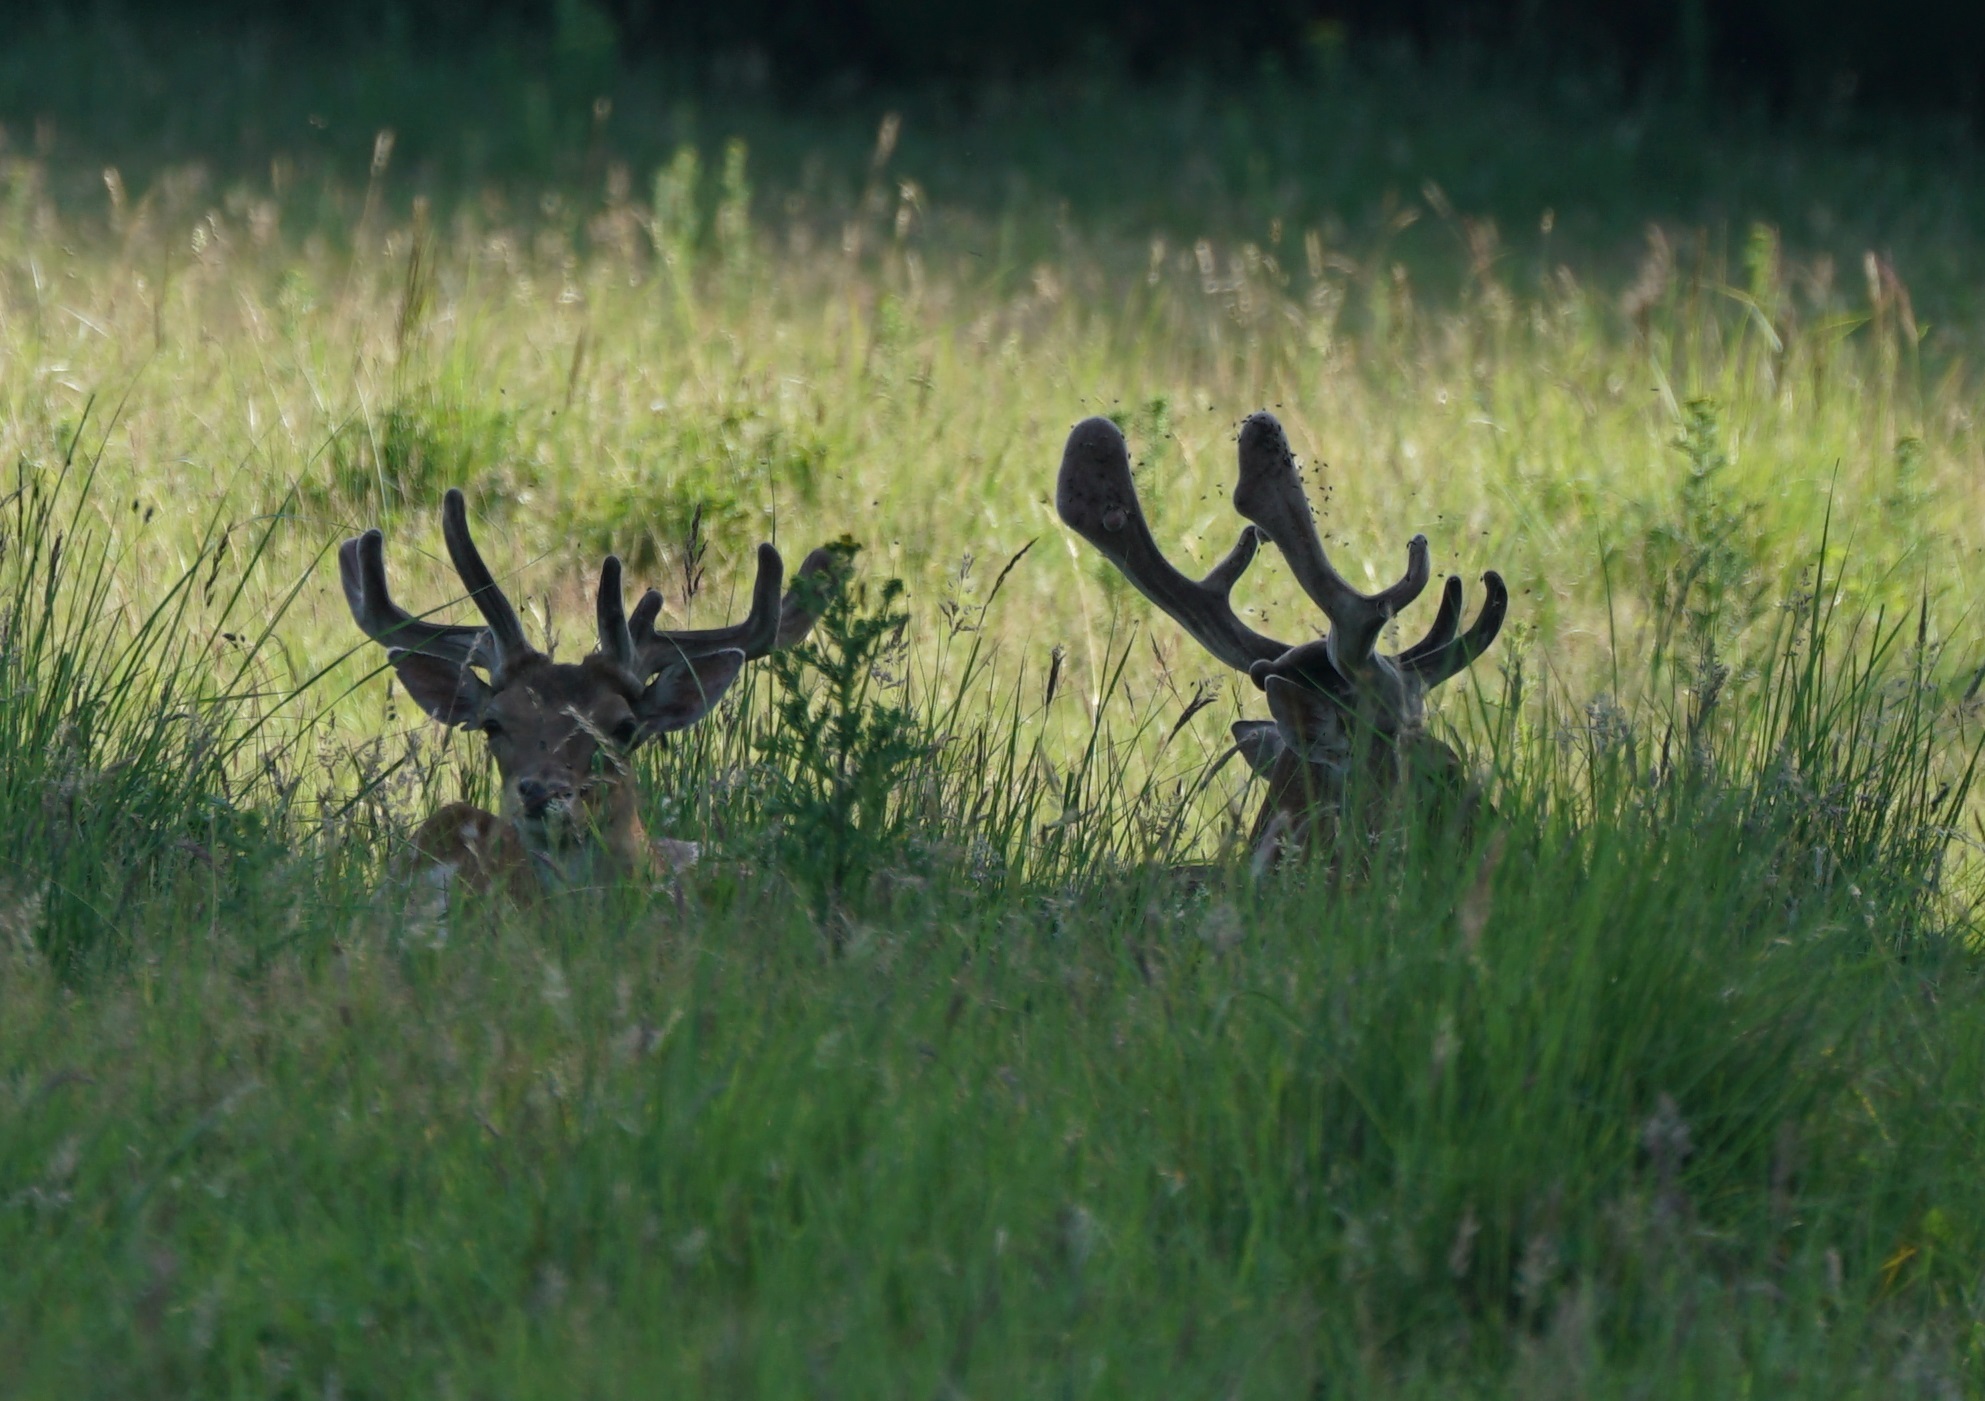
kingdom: Animalia
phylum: Chordata
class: Mammalia
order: Artiodactyla
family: Cervidae
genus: Dama
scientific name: Dama dama
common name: Fallow deer
